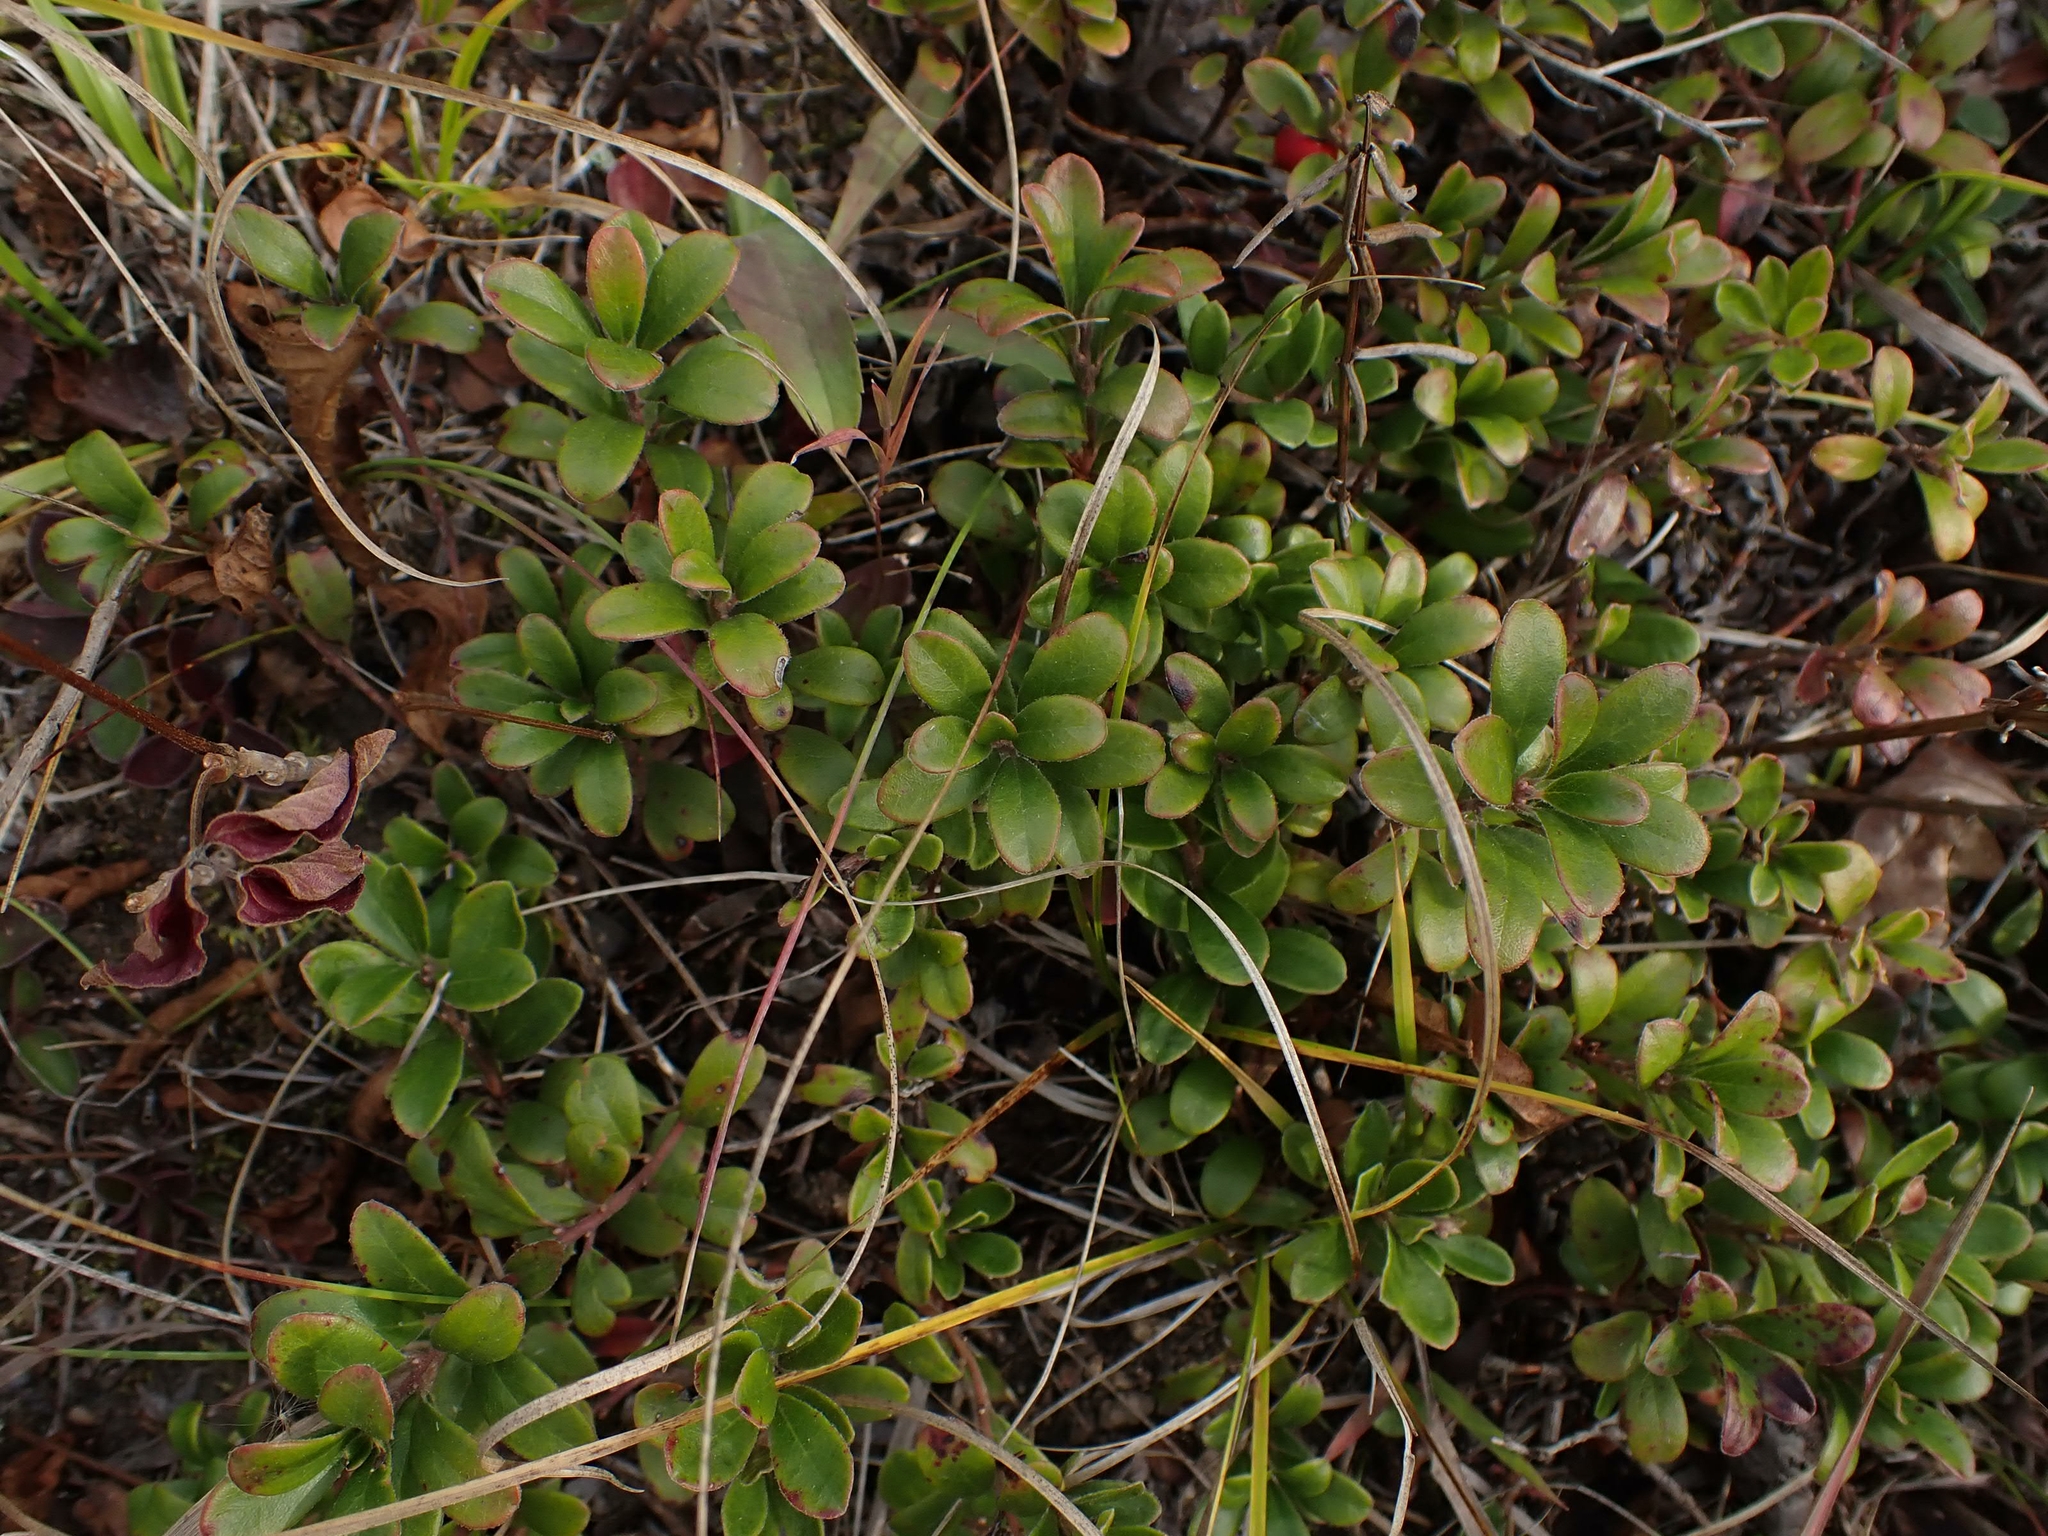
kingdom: Plantae
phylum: Tracheophyta
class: Magnoliopsida
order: Ericales
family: Ericaceae
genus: Arctostaphylos
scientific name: Arctostaphylos uva-ursi
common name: Bearberry
